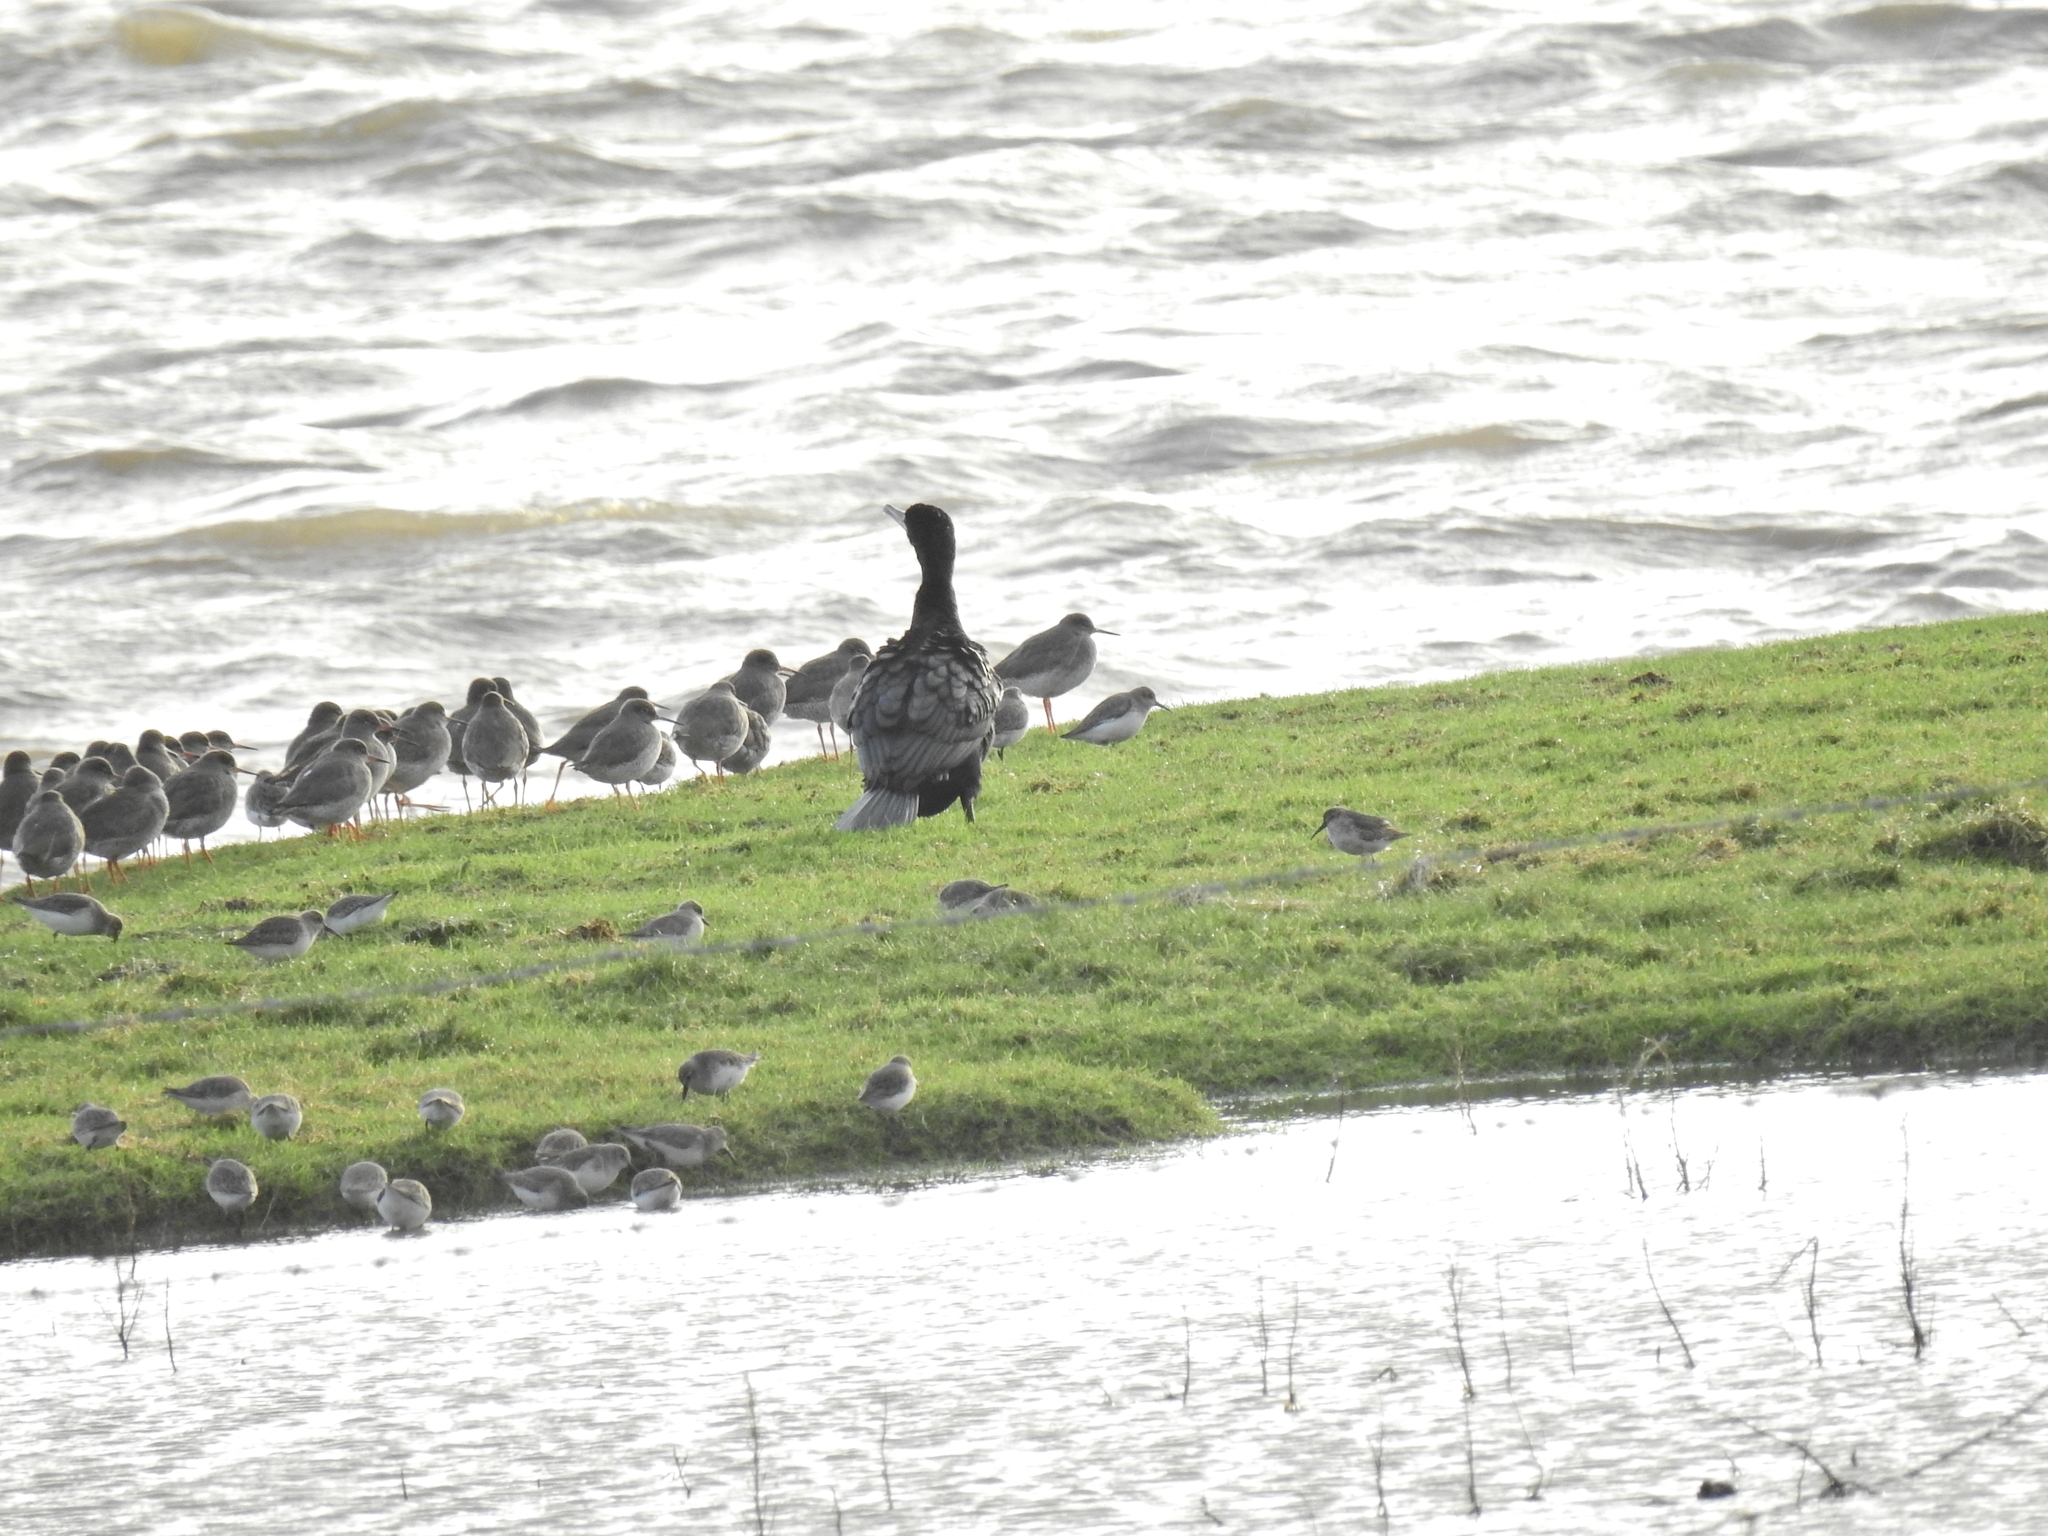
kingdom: Animalia
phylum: Chordata
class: Aves
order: Suliformes
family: Phalacrocoracidae
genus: Phalacrocorax
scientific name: Phalacrocorax carbo
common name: Great cormorant
